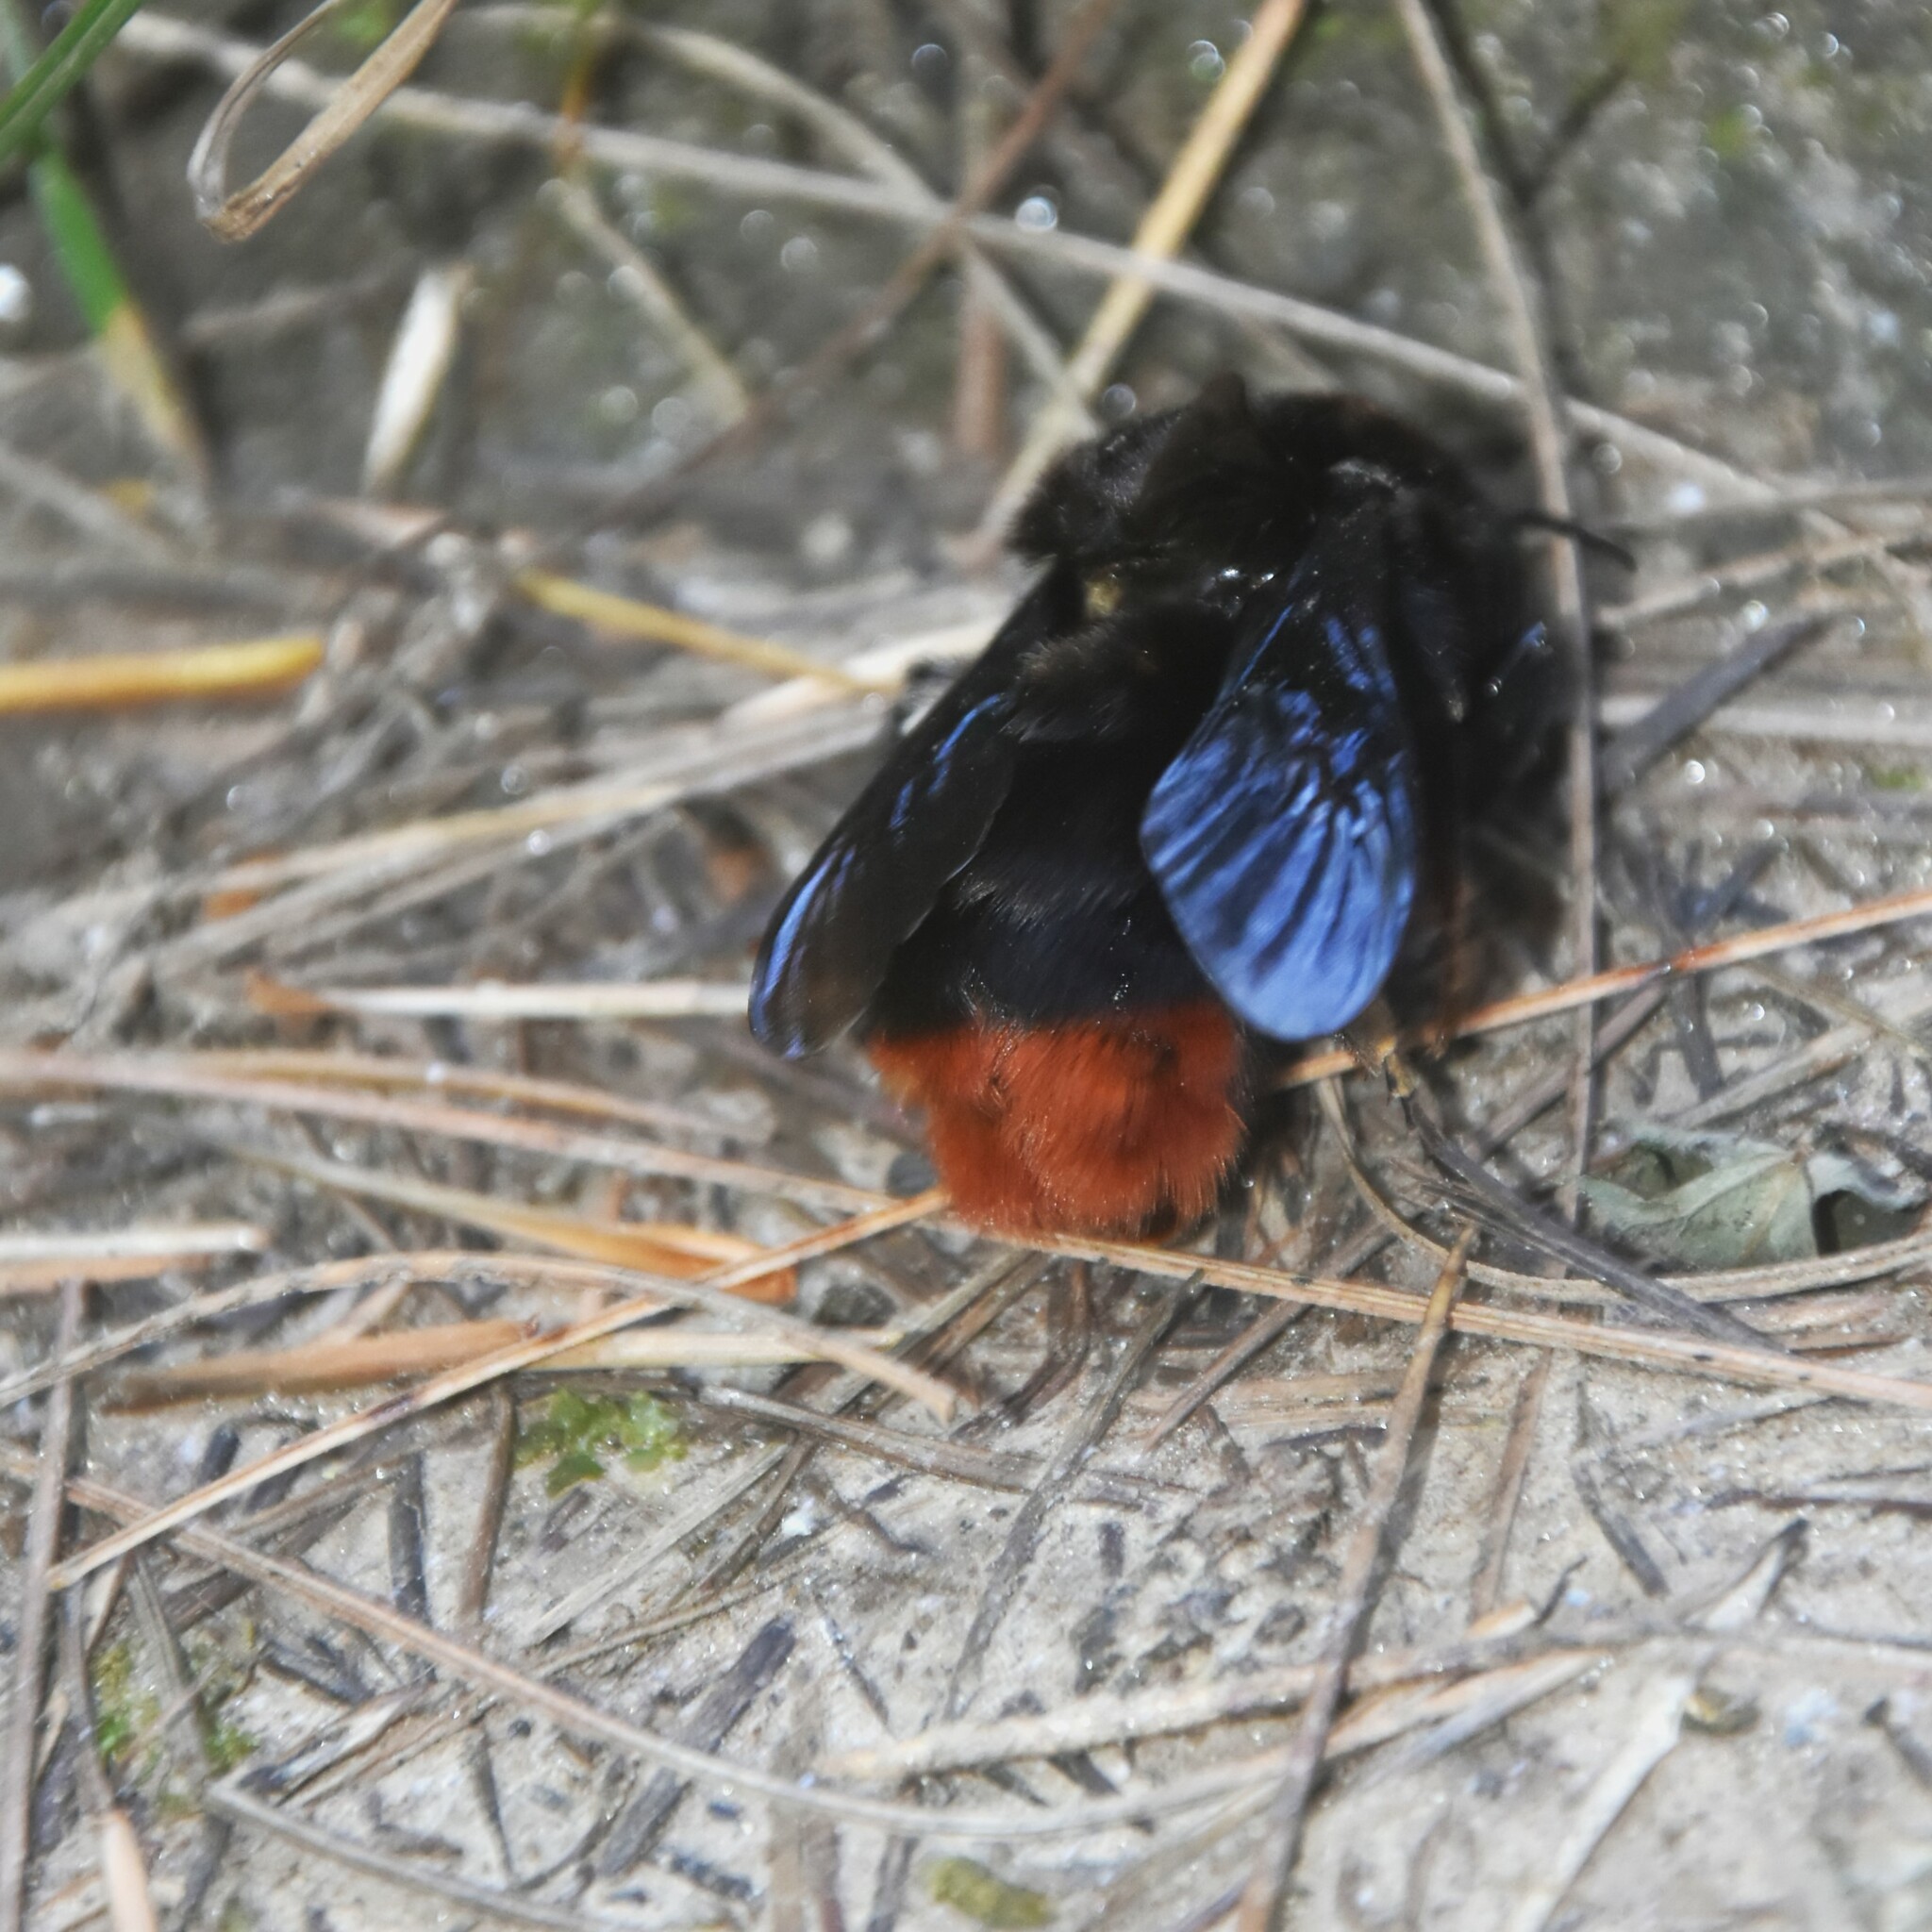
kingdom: Animalia
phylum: Arthropoda
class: Insecta
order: Hymenoptera
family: Apidae
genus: Bombus
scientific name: Bombus simillimus
